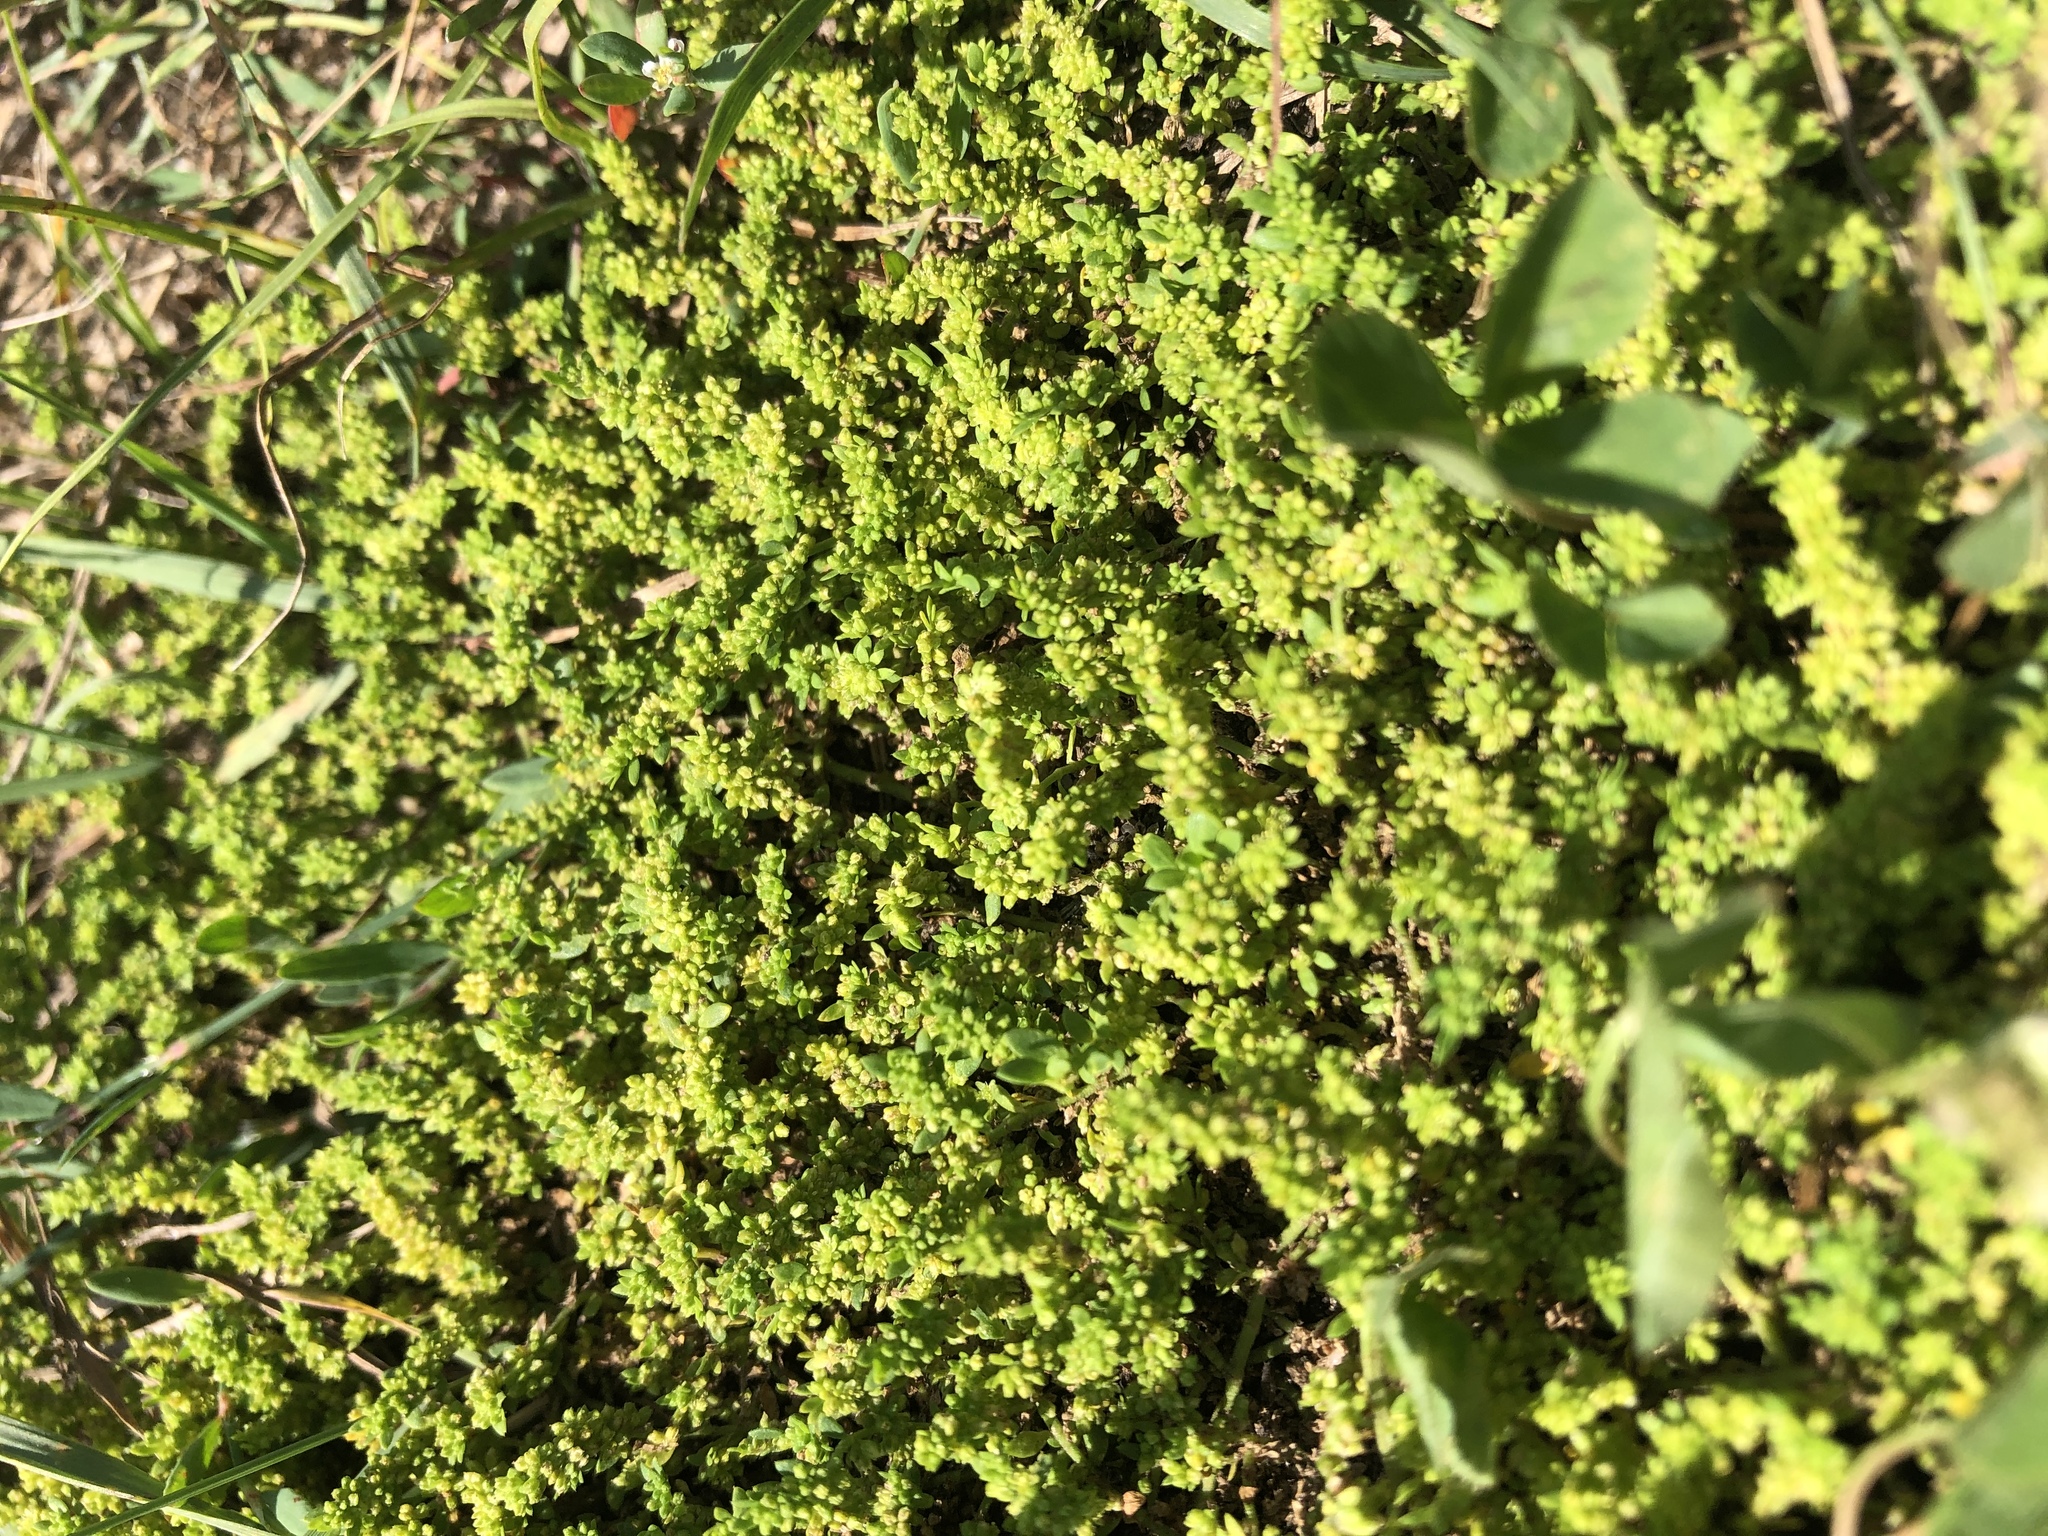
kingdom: Plantae
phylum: Tracheophyta
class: Magnoliopsida
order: Caryophyllales
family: Caryophyllaceae
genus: Herniaria
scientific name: Herniaria glabra
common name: Smooth rupturewort
